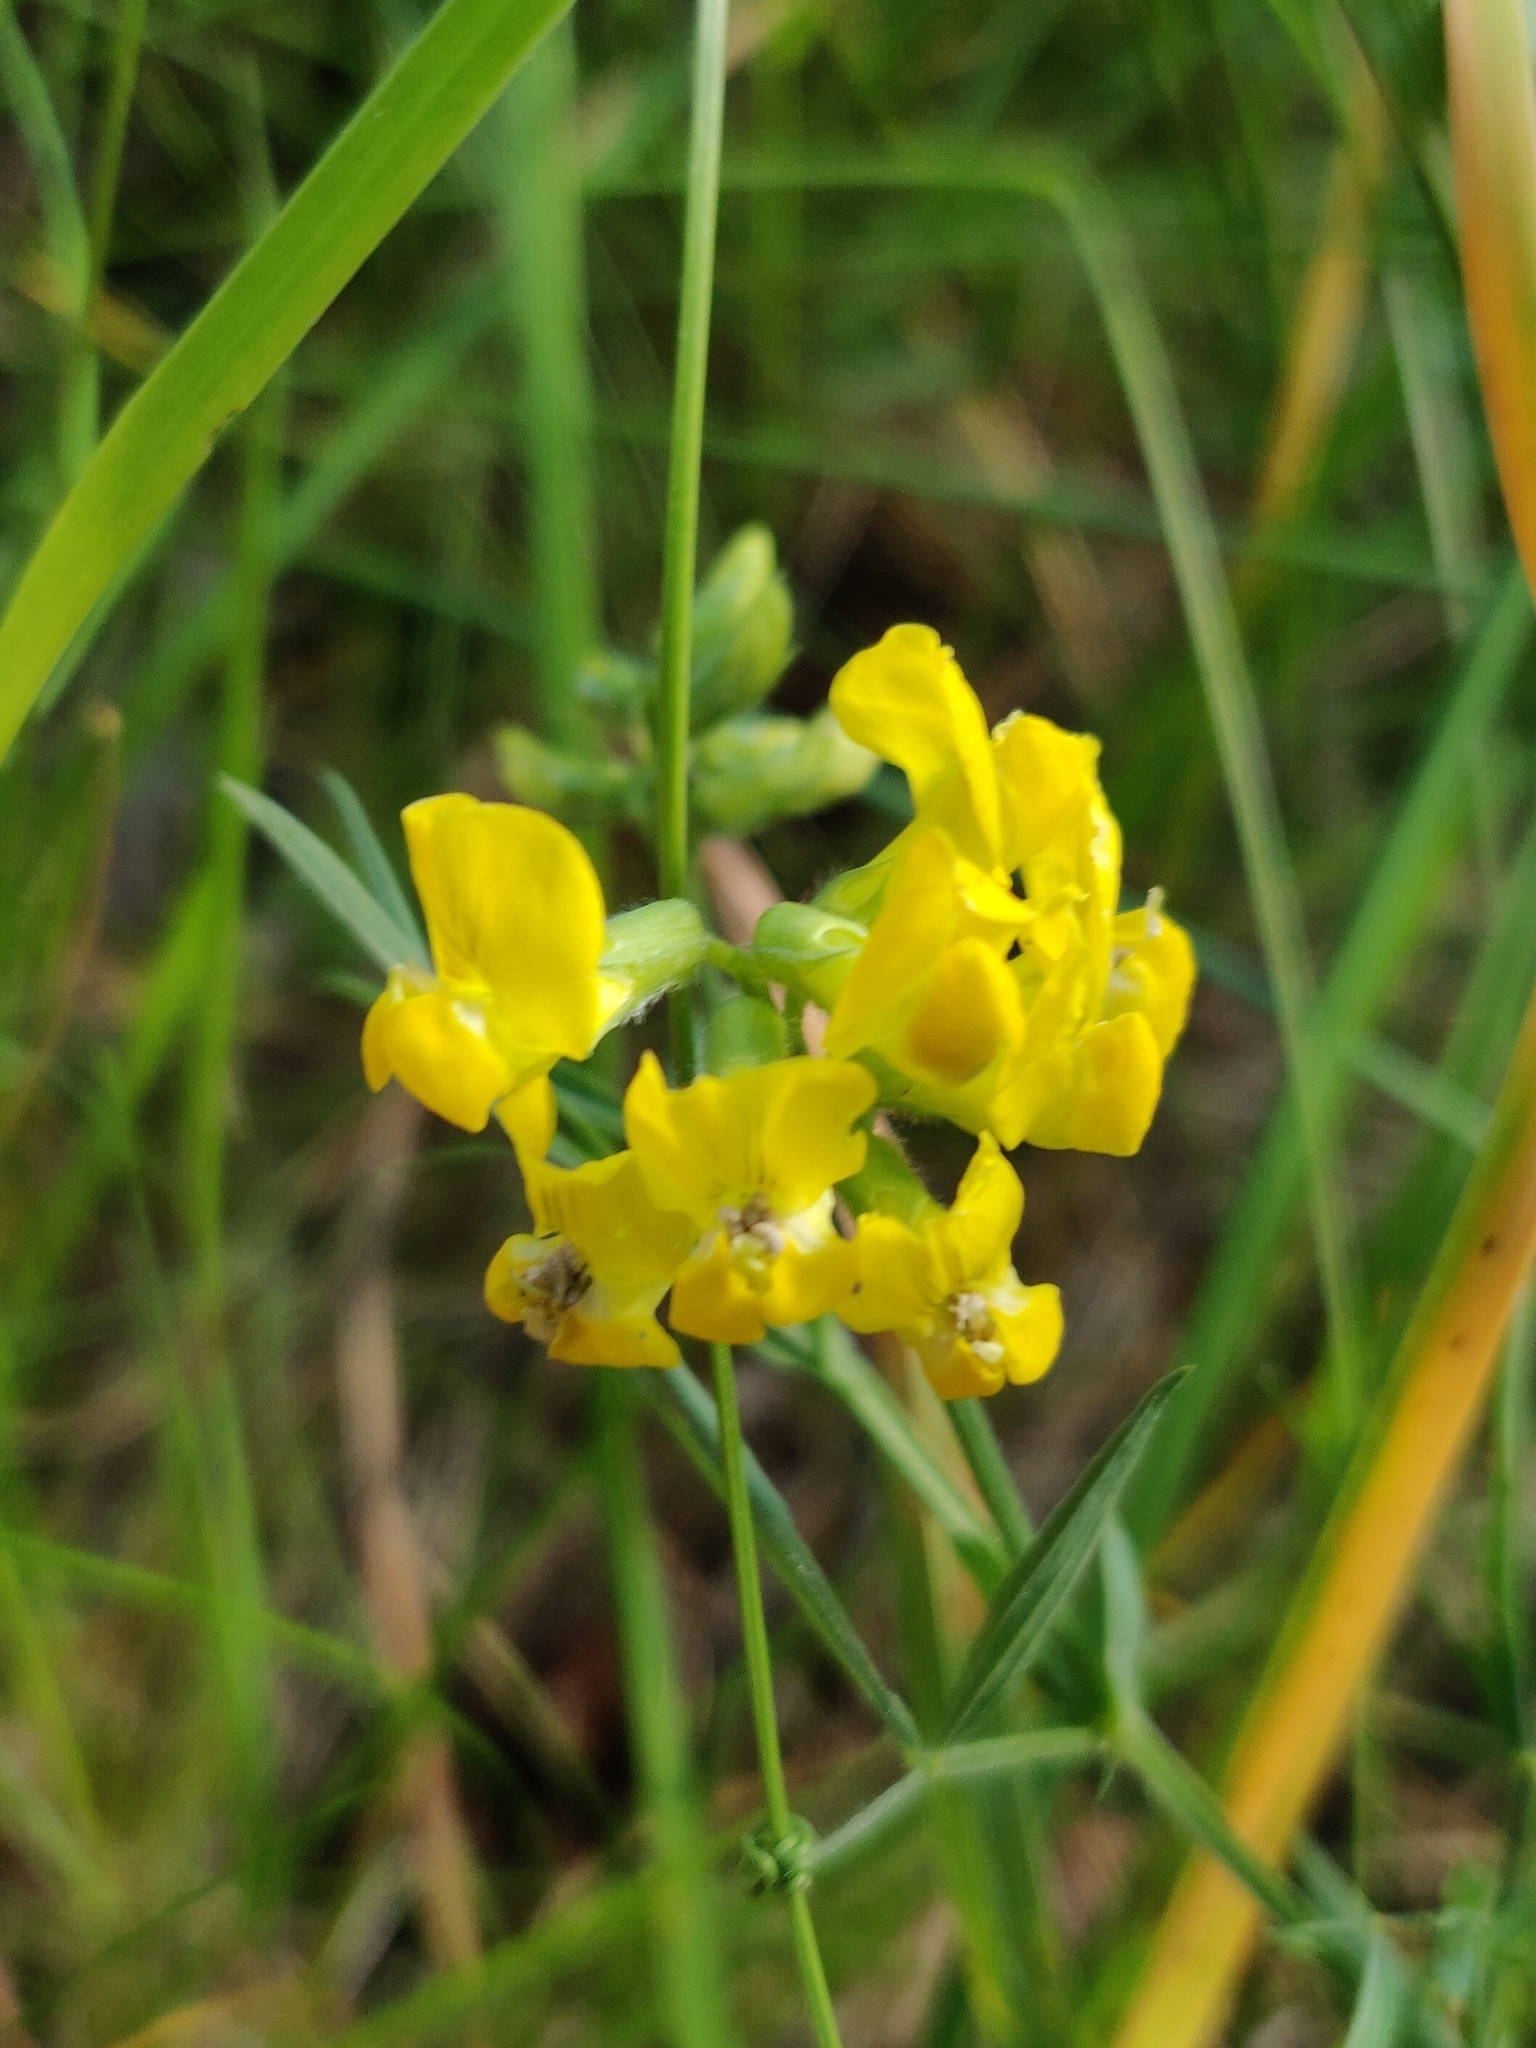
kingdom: Plantae
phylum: Tracheophyta
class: Magnoliopsida
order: Fabales
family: Fabaceae
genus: Lathyrus
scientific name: Lathyrus pratensis
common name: Meadow vetchling
